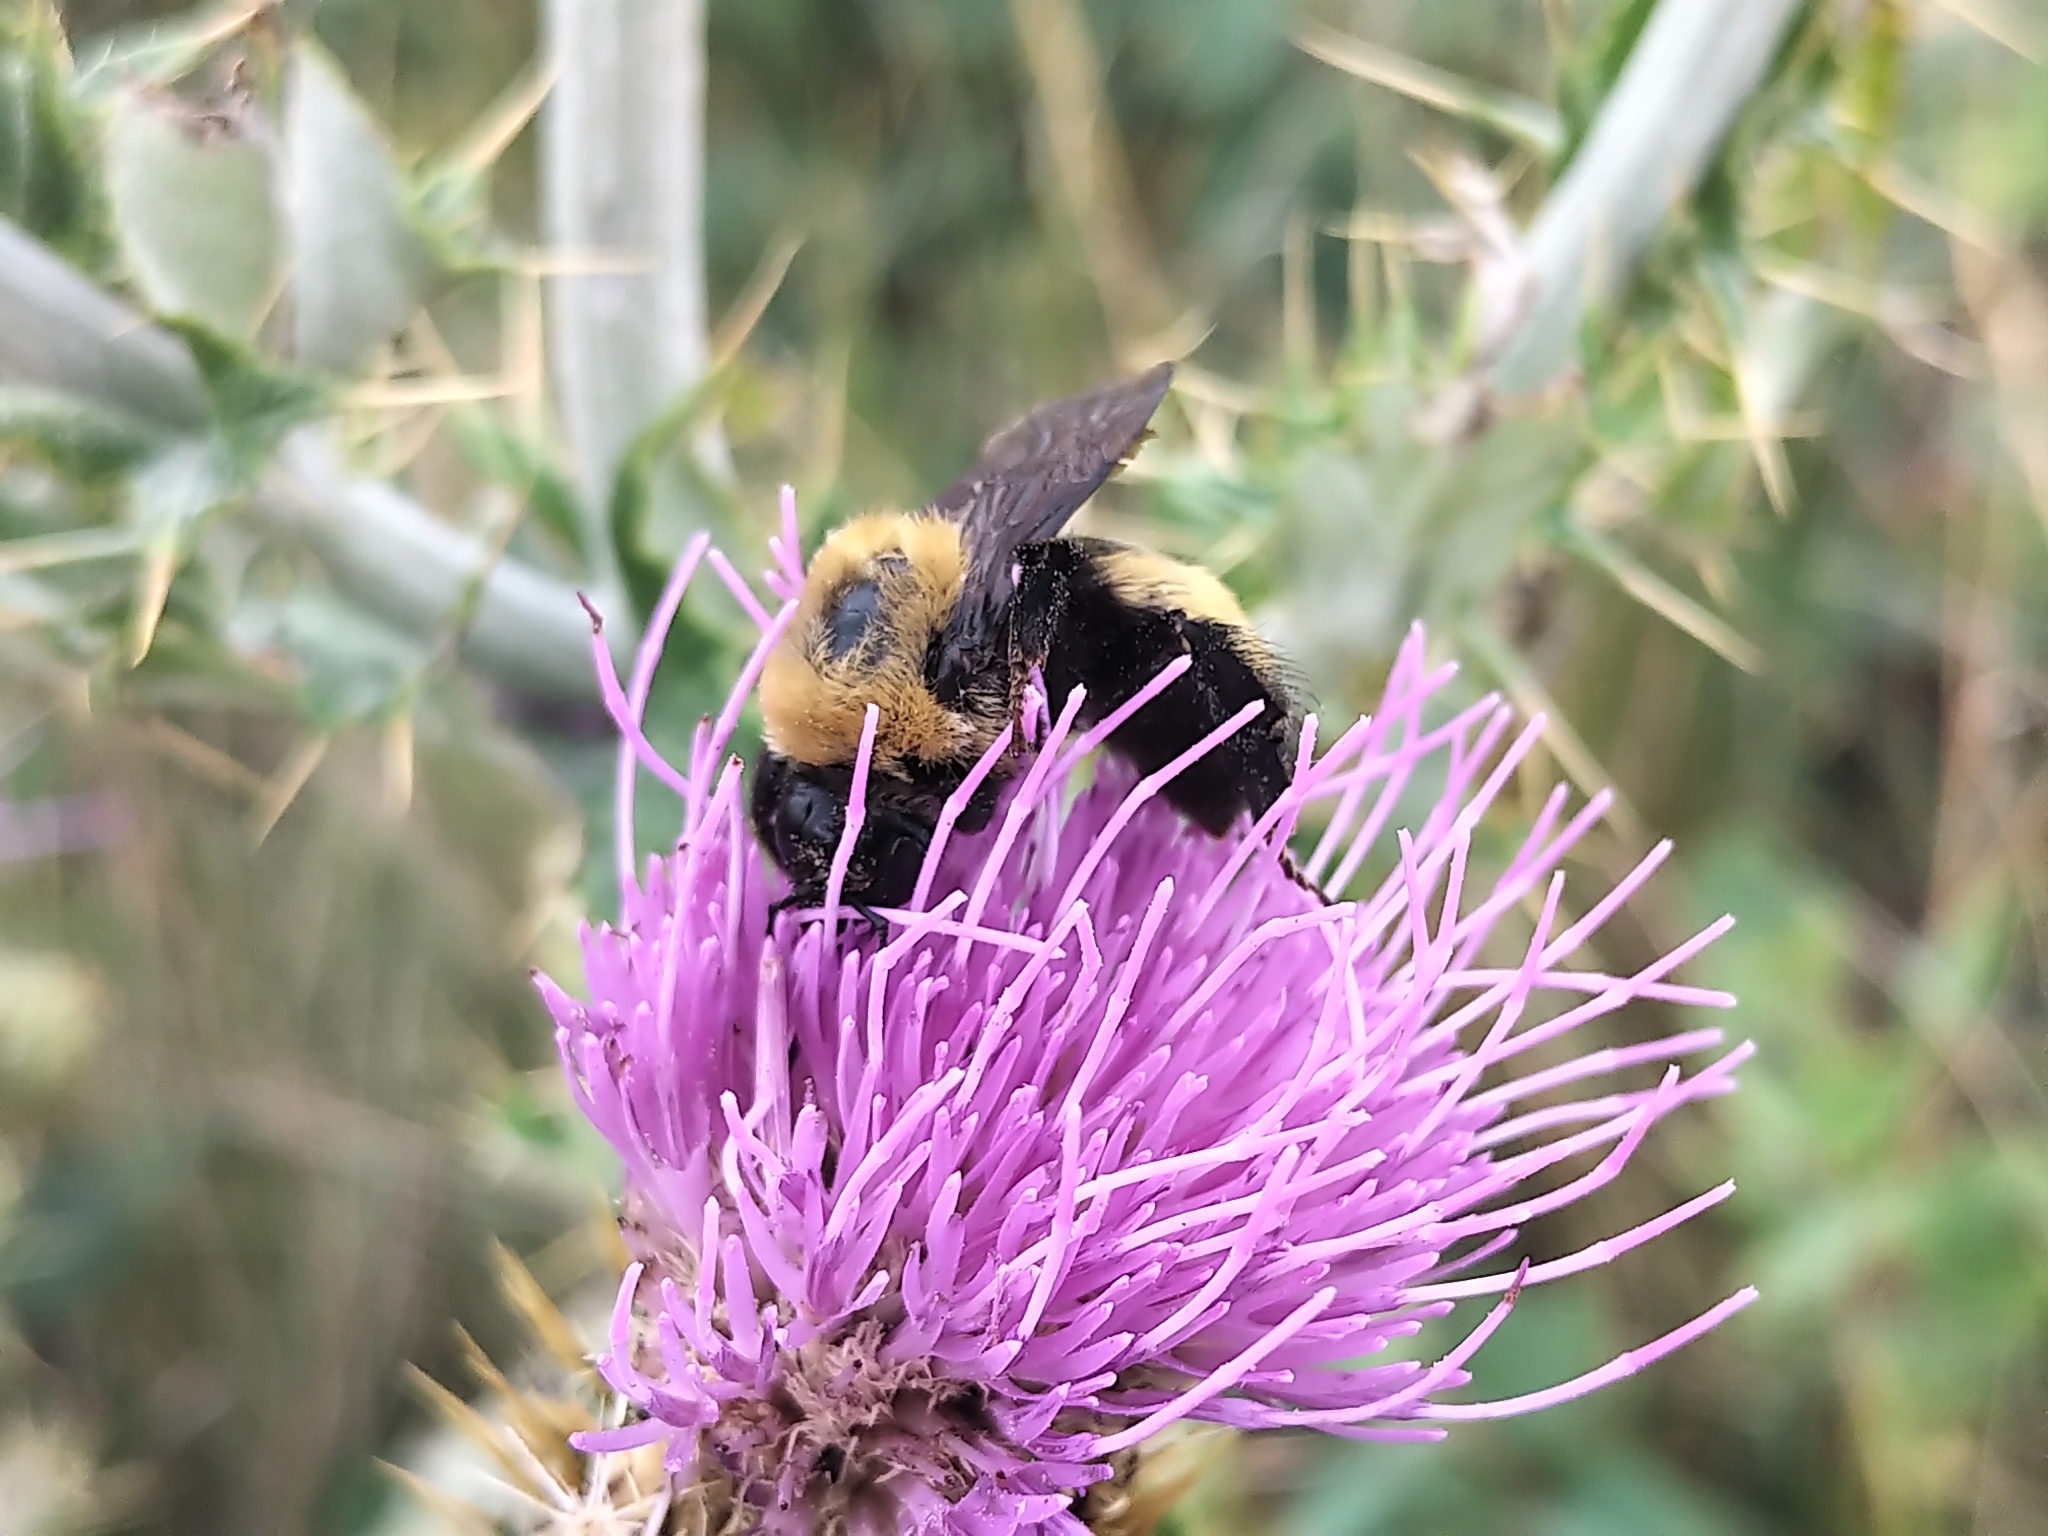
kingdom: Animalia
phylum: Arthropoda
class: Insecta
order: Hymenoptera
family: Apidae
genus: Bombus
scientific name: Bombus nevadensis
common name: Nevada bumble bee
